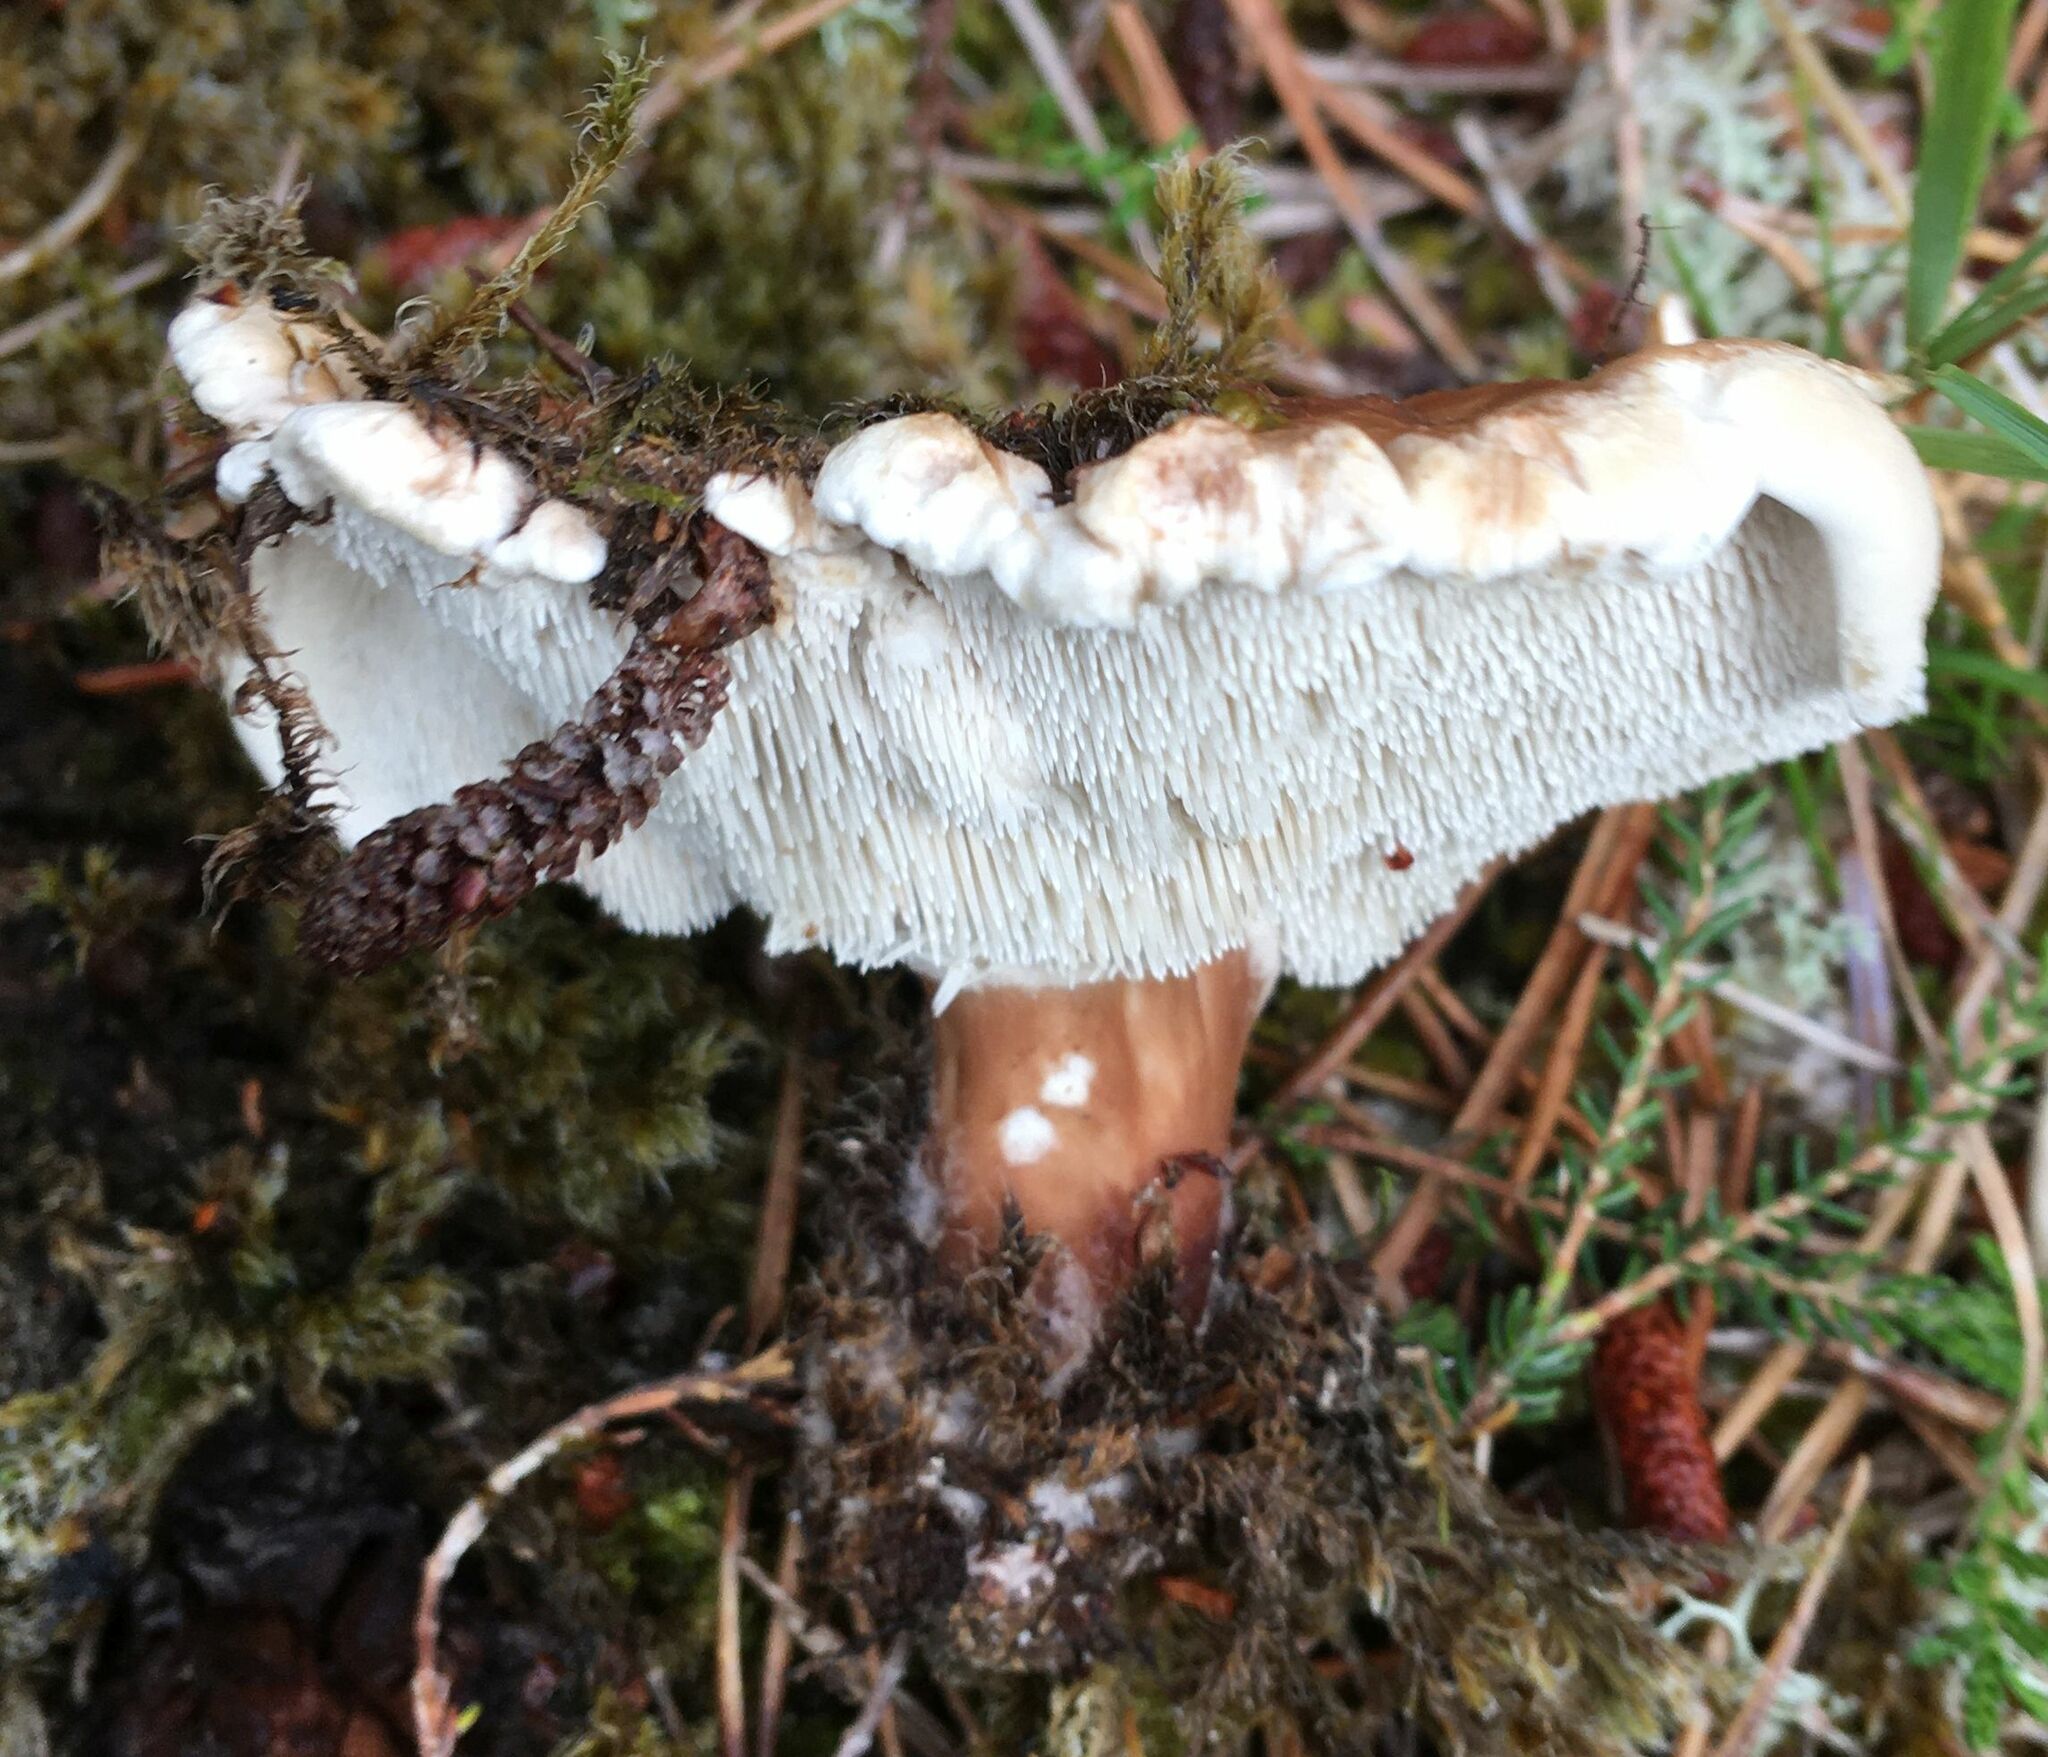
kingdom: Fungi
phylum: Basidiomycota
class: Agaricomycetes
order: Thelephorales
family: Bankeraceae
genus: Hydnellum
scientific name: Hydnellum peckii
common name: Devil's tooth
